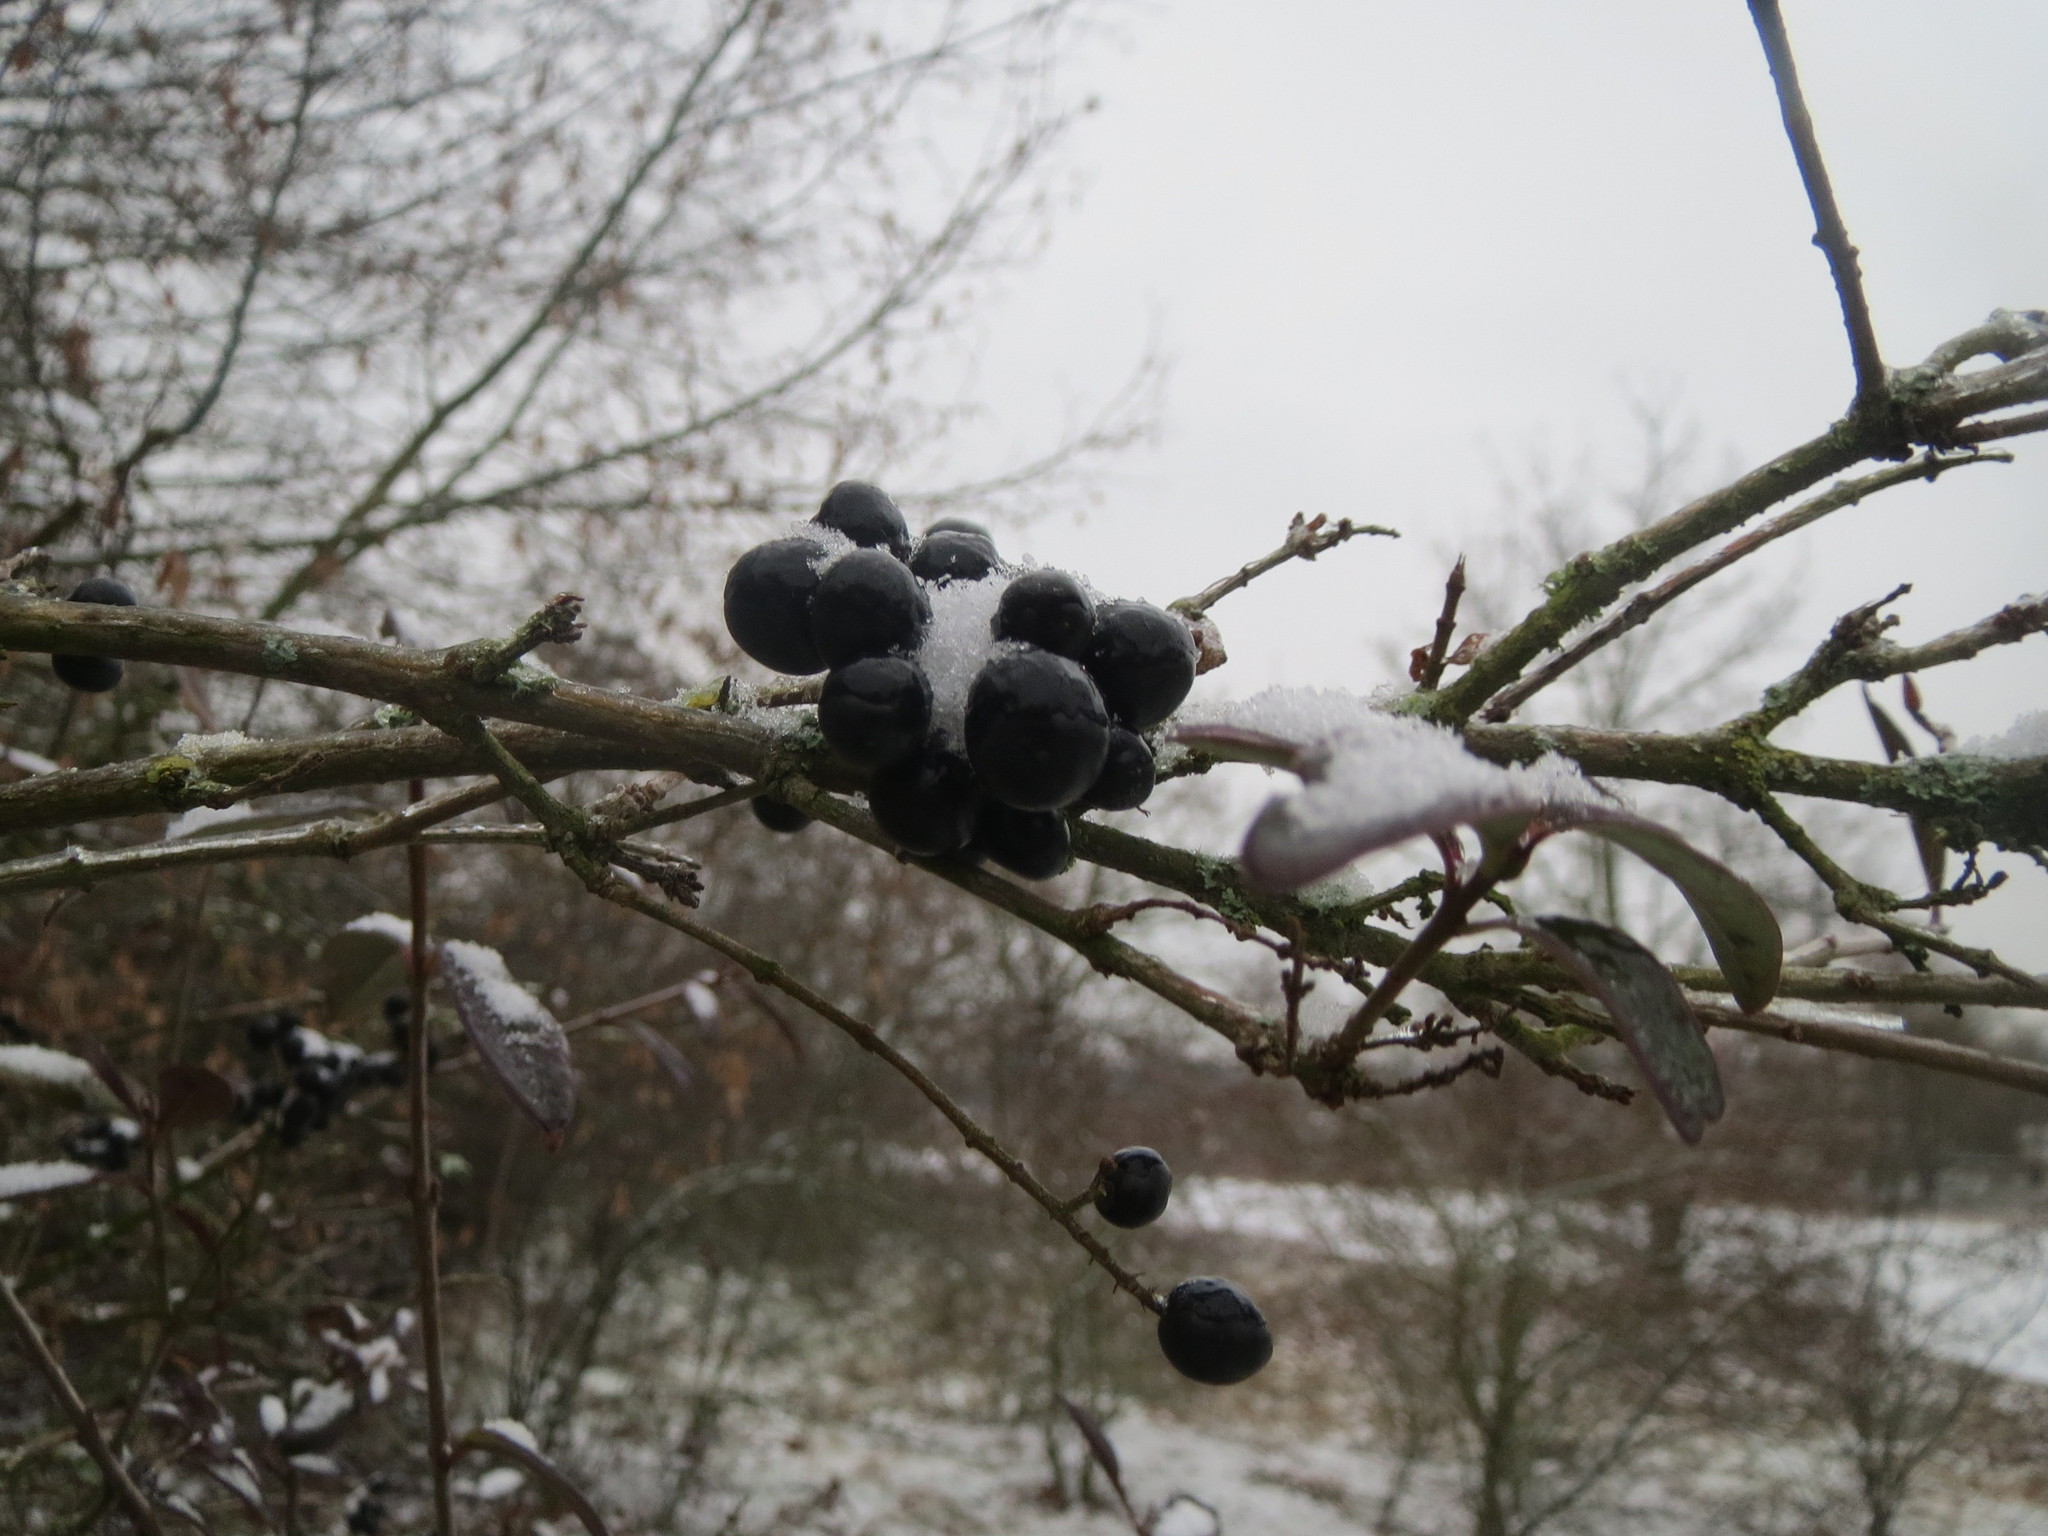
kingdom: Plantae
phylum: Tracheophyta
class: Magnoliopsida
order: Lamiales
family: Oleaceae
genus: Ligustrum
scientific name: Ligustrum vulgare
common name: Wild privet
